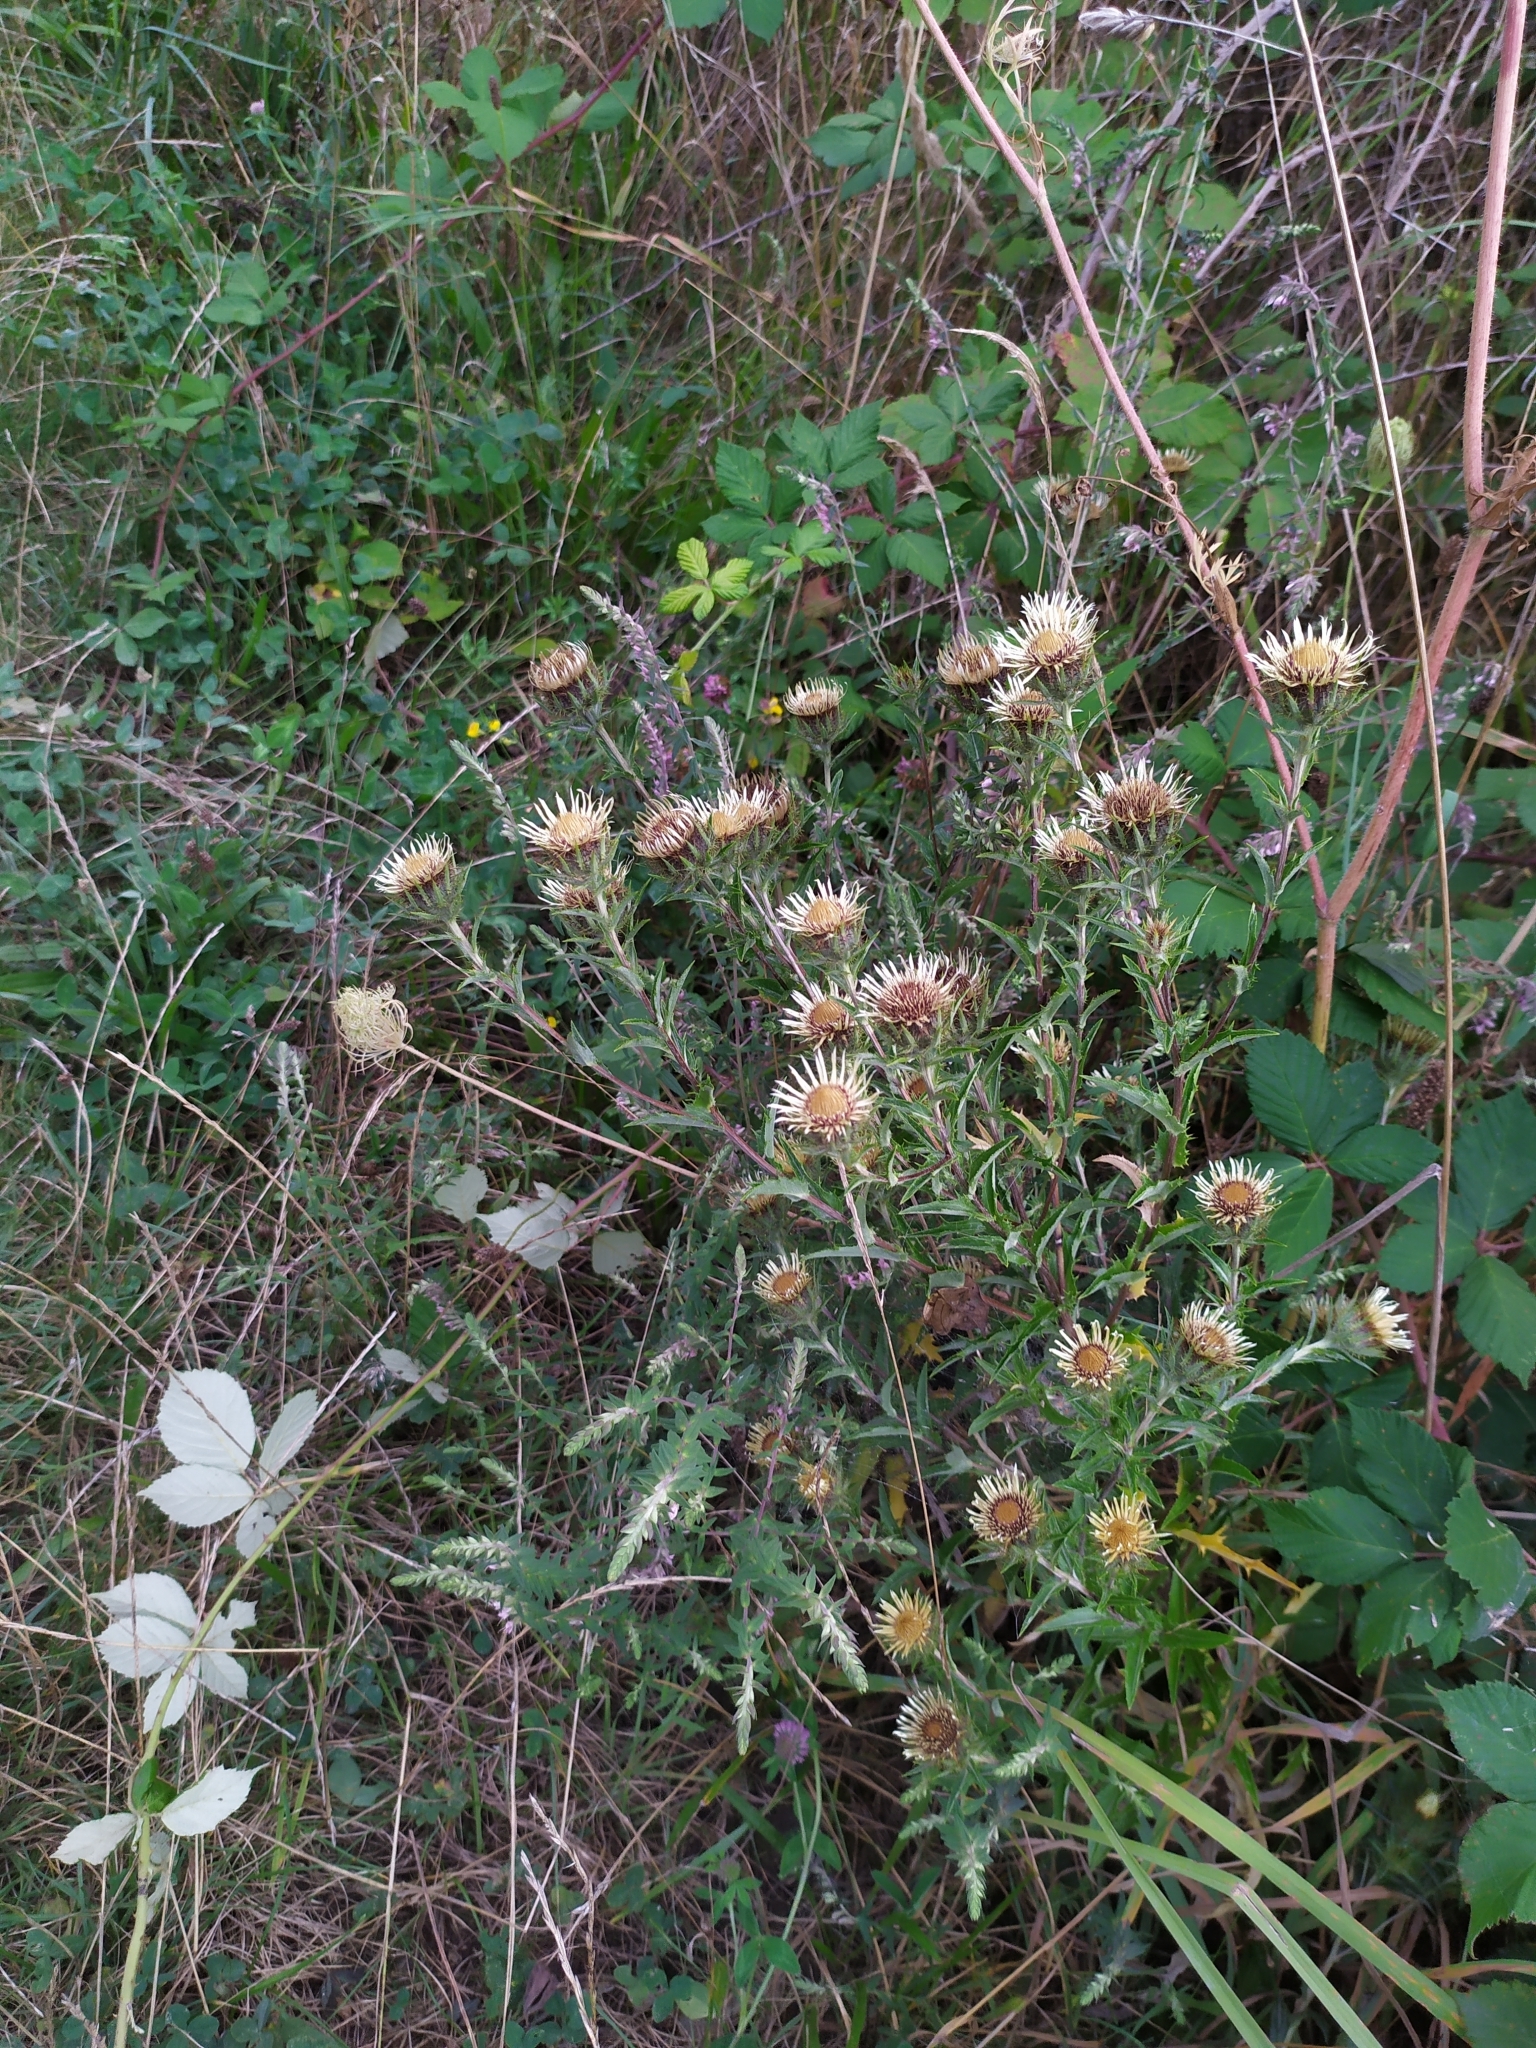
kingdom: Plantae
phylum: Tracheophyta
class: Magnoliopsida
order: Asterales
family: Asteraceae
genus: Carlina
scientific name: Carlina vulgaris
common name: Carline thistle
